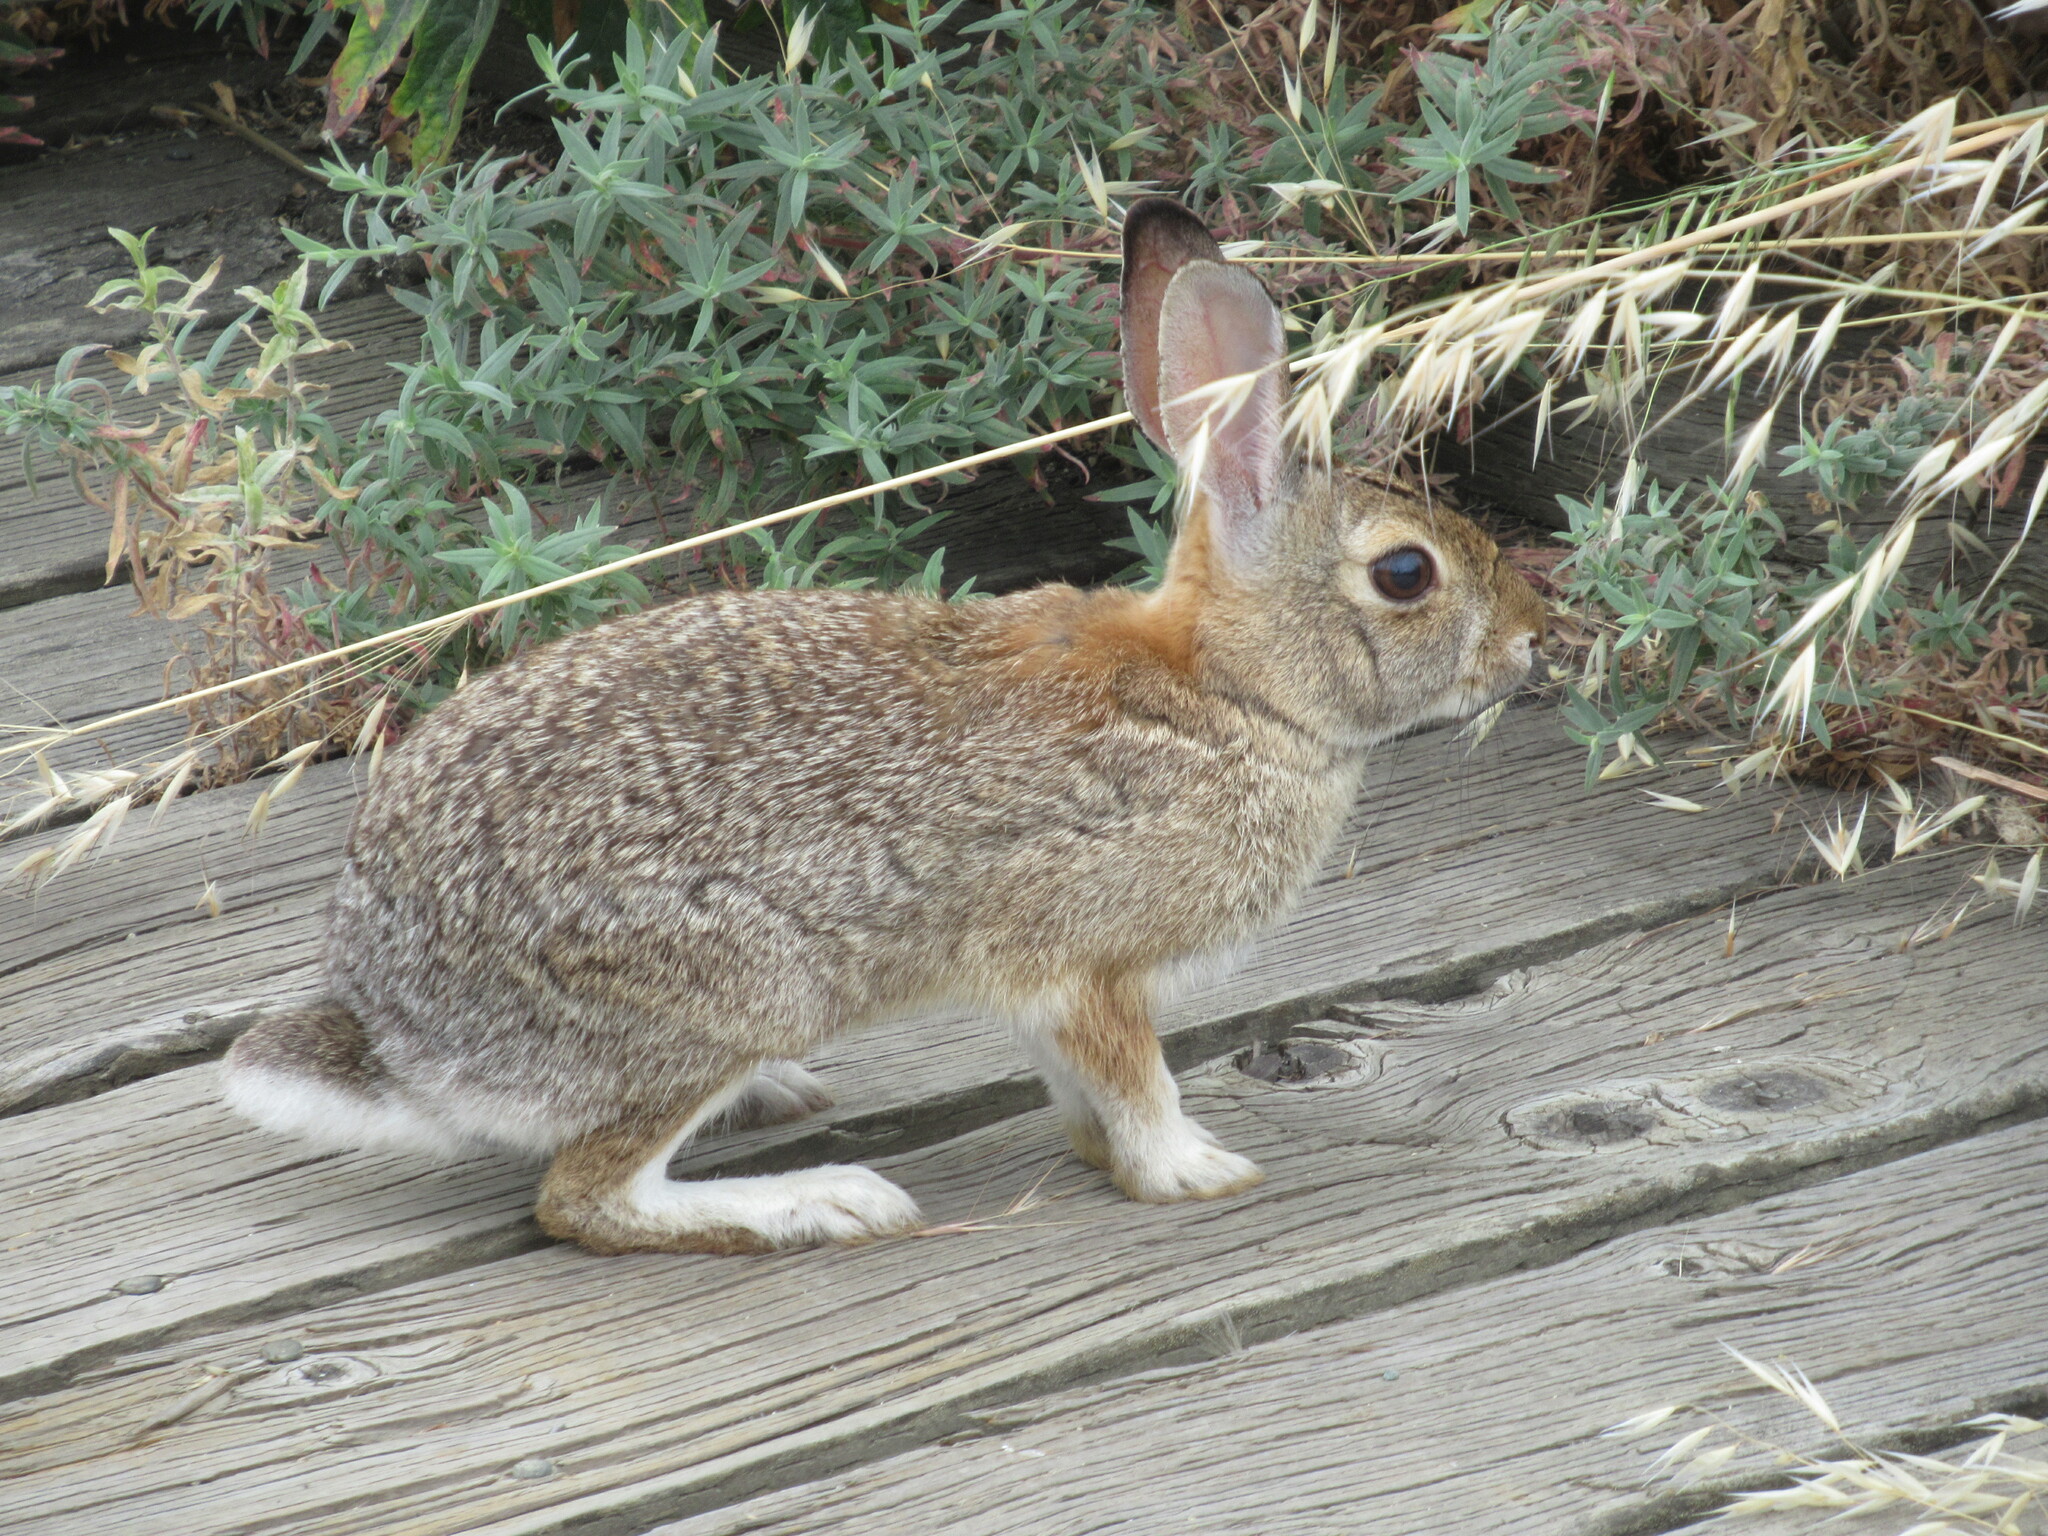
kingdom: Animalia
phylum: Chordata
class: Mammalia
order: Lagomorpha
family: Leporidae
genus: Sylvilagus
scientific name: Sylvilagus audubonii
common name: Desert cottontail
